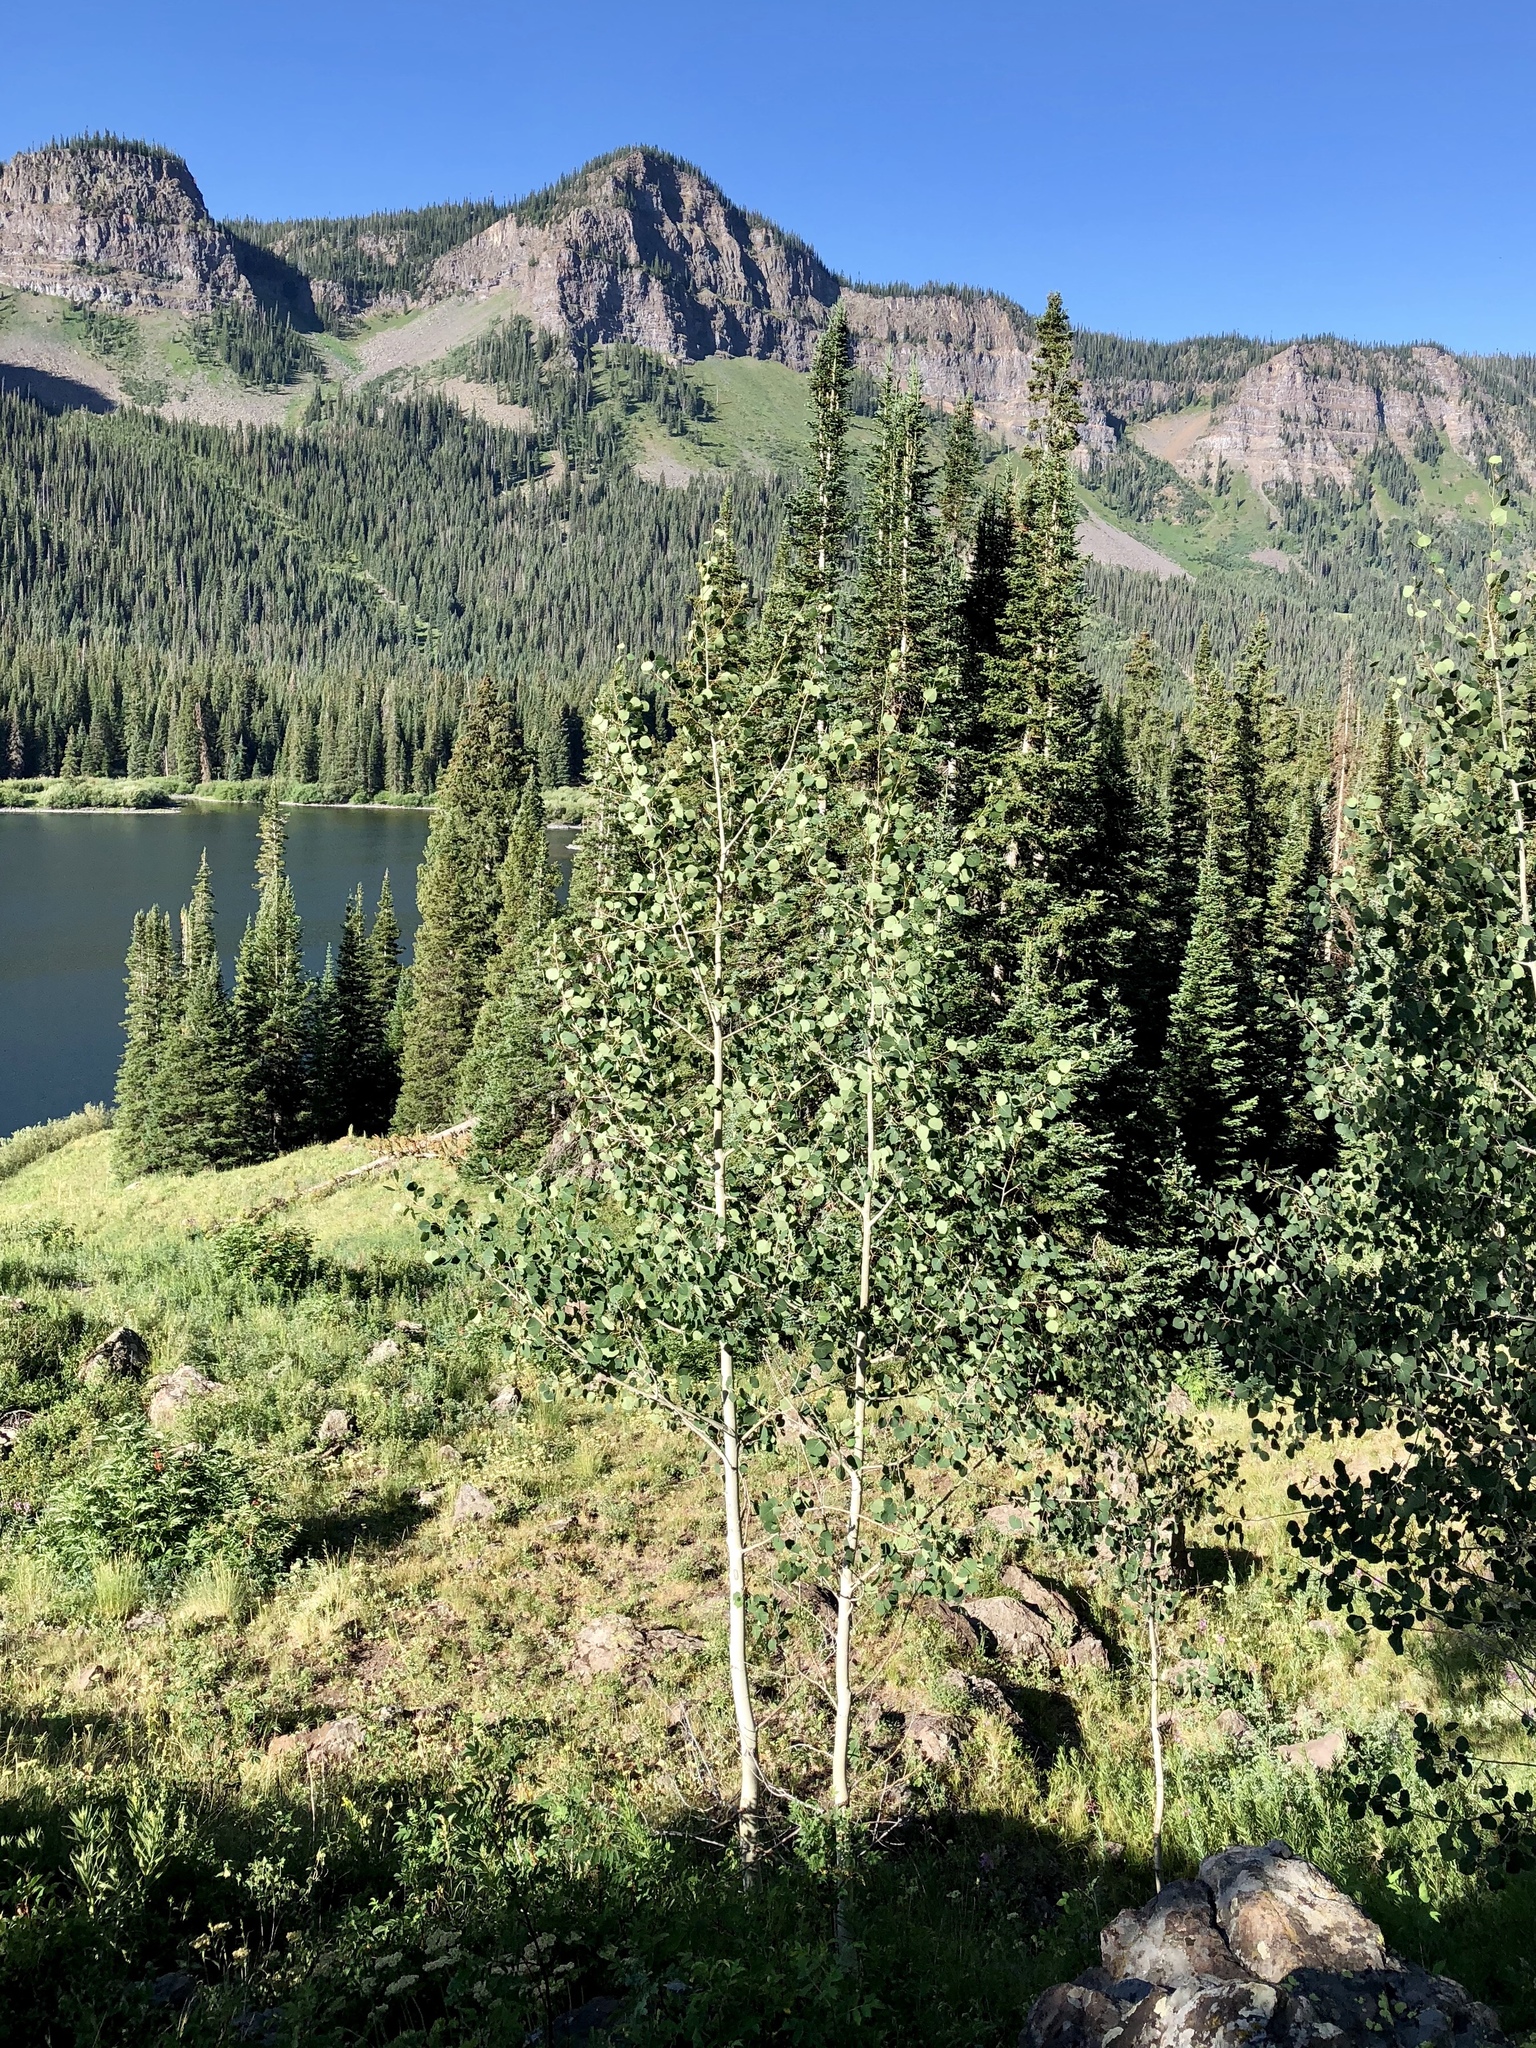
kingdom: Plantae
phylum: Tracheophyta
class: Magnoliopsida
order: Malpighiales
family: Salicaceae
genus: Populus
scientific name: Populus tremuloides
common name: Quaking aspen
